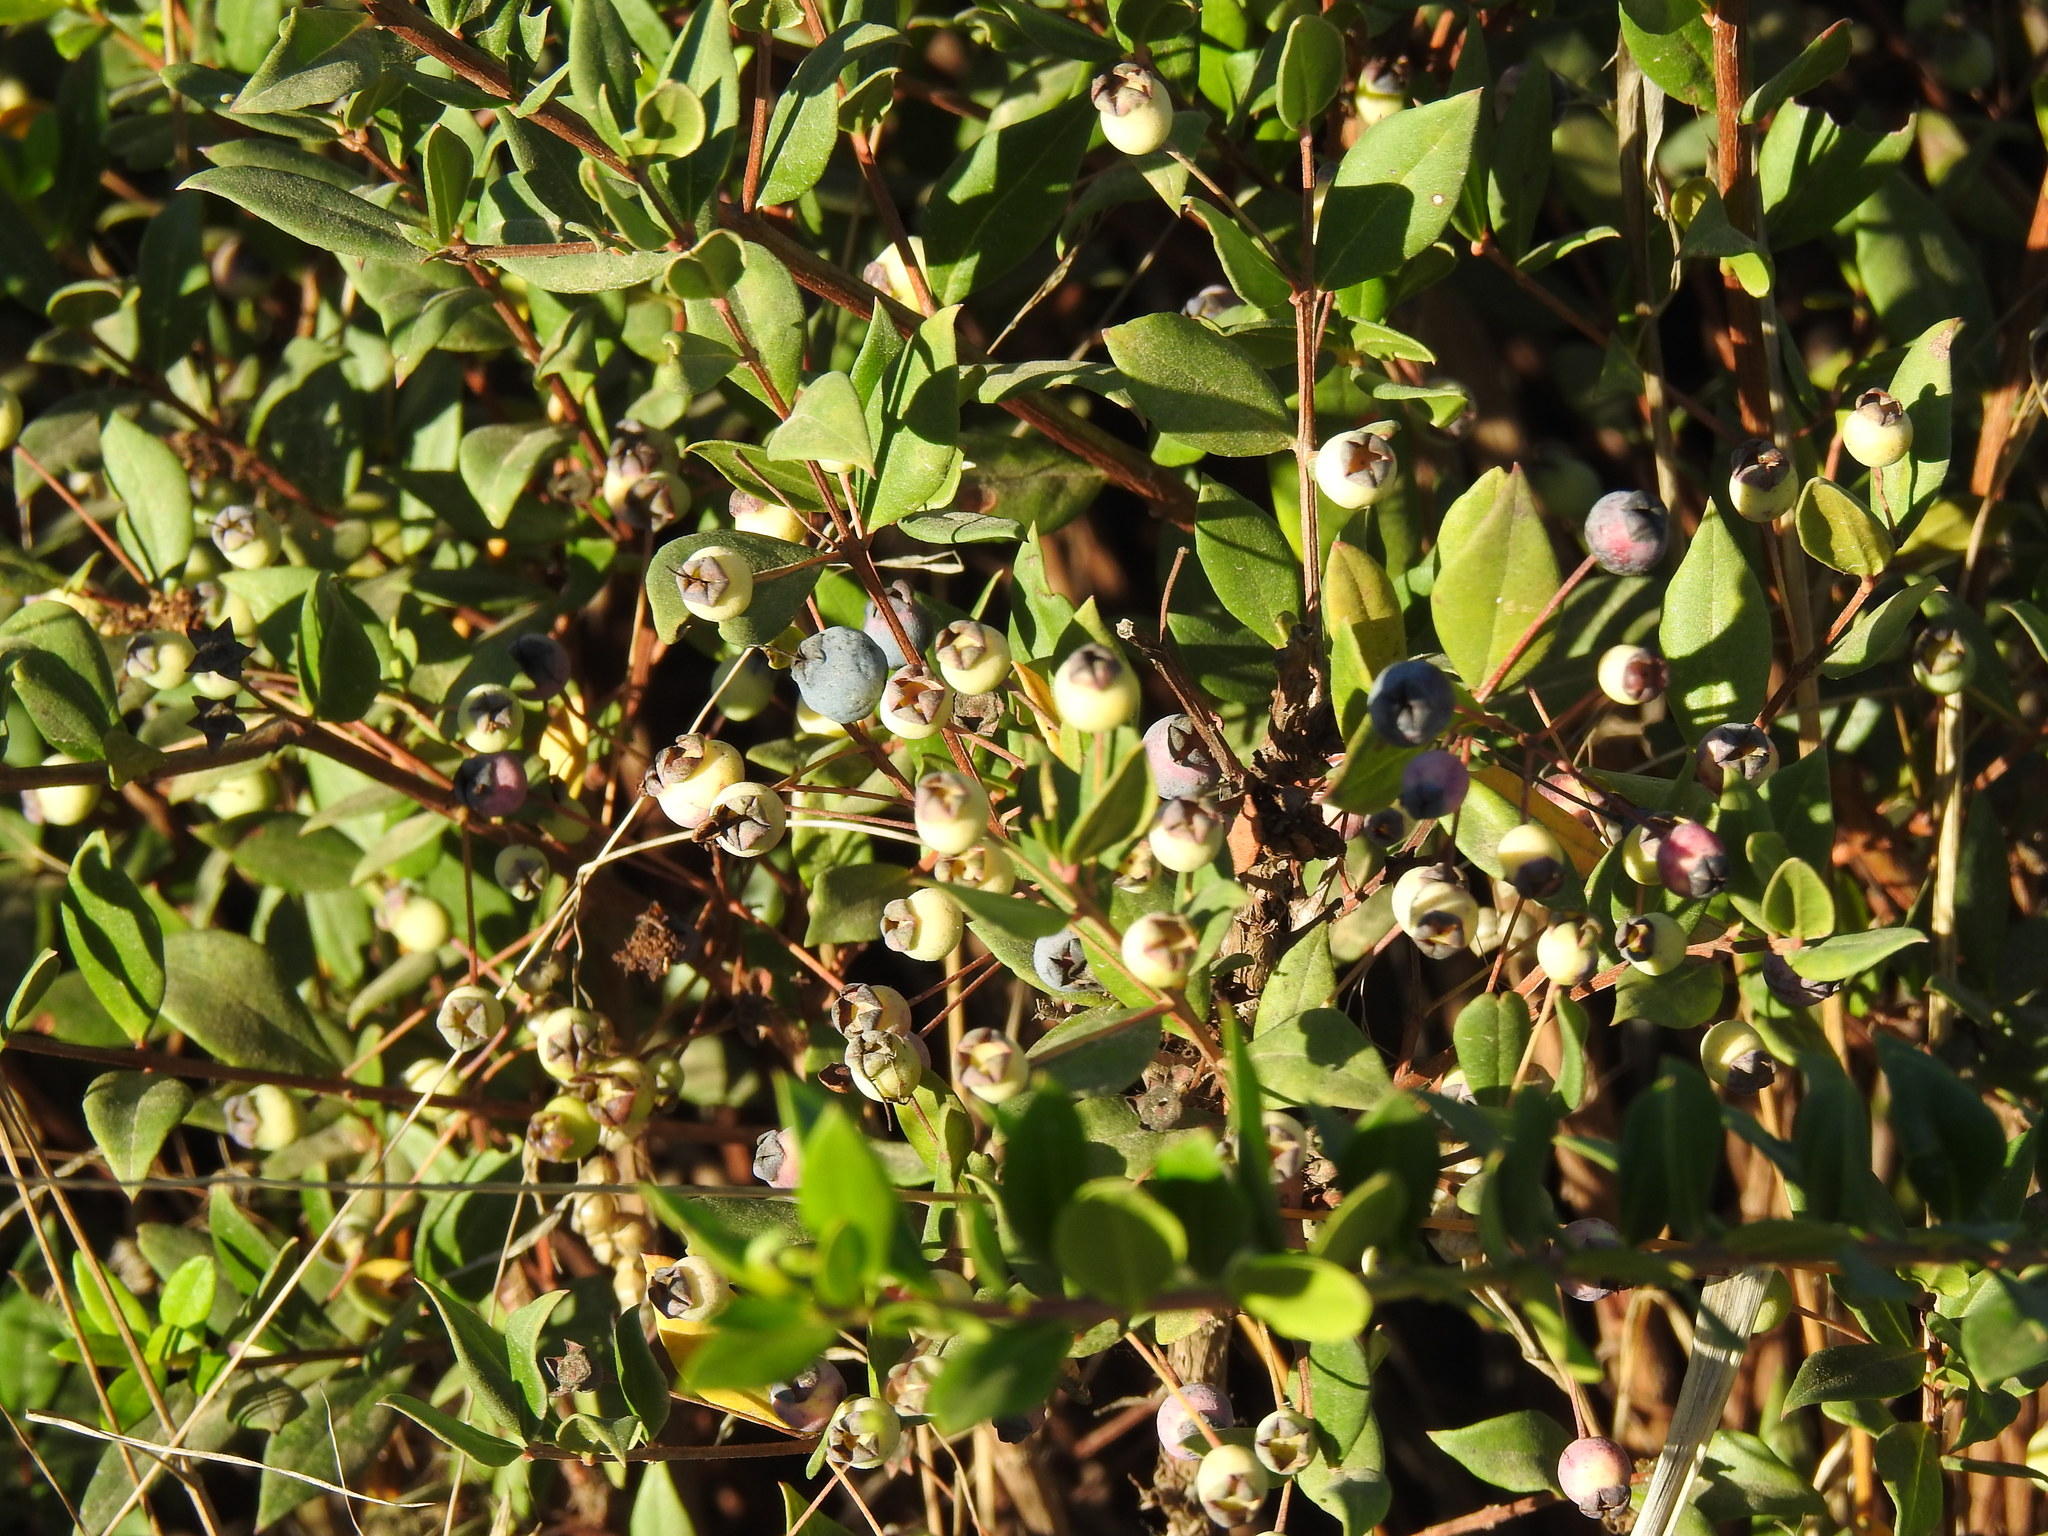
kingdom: Plantae
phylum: Tracheophyta
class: Magnoliopsida
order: Myrtales
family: Myrtaceae
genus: Myrtus
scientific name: Myrtus communis
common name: Myrtle
